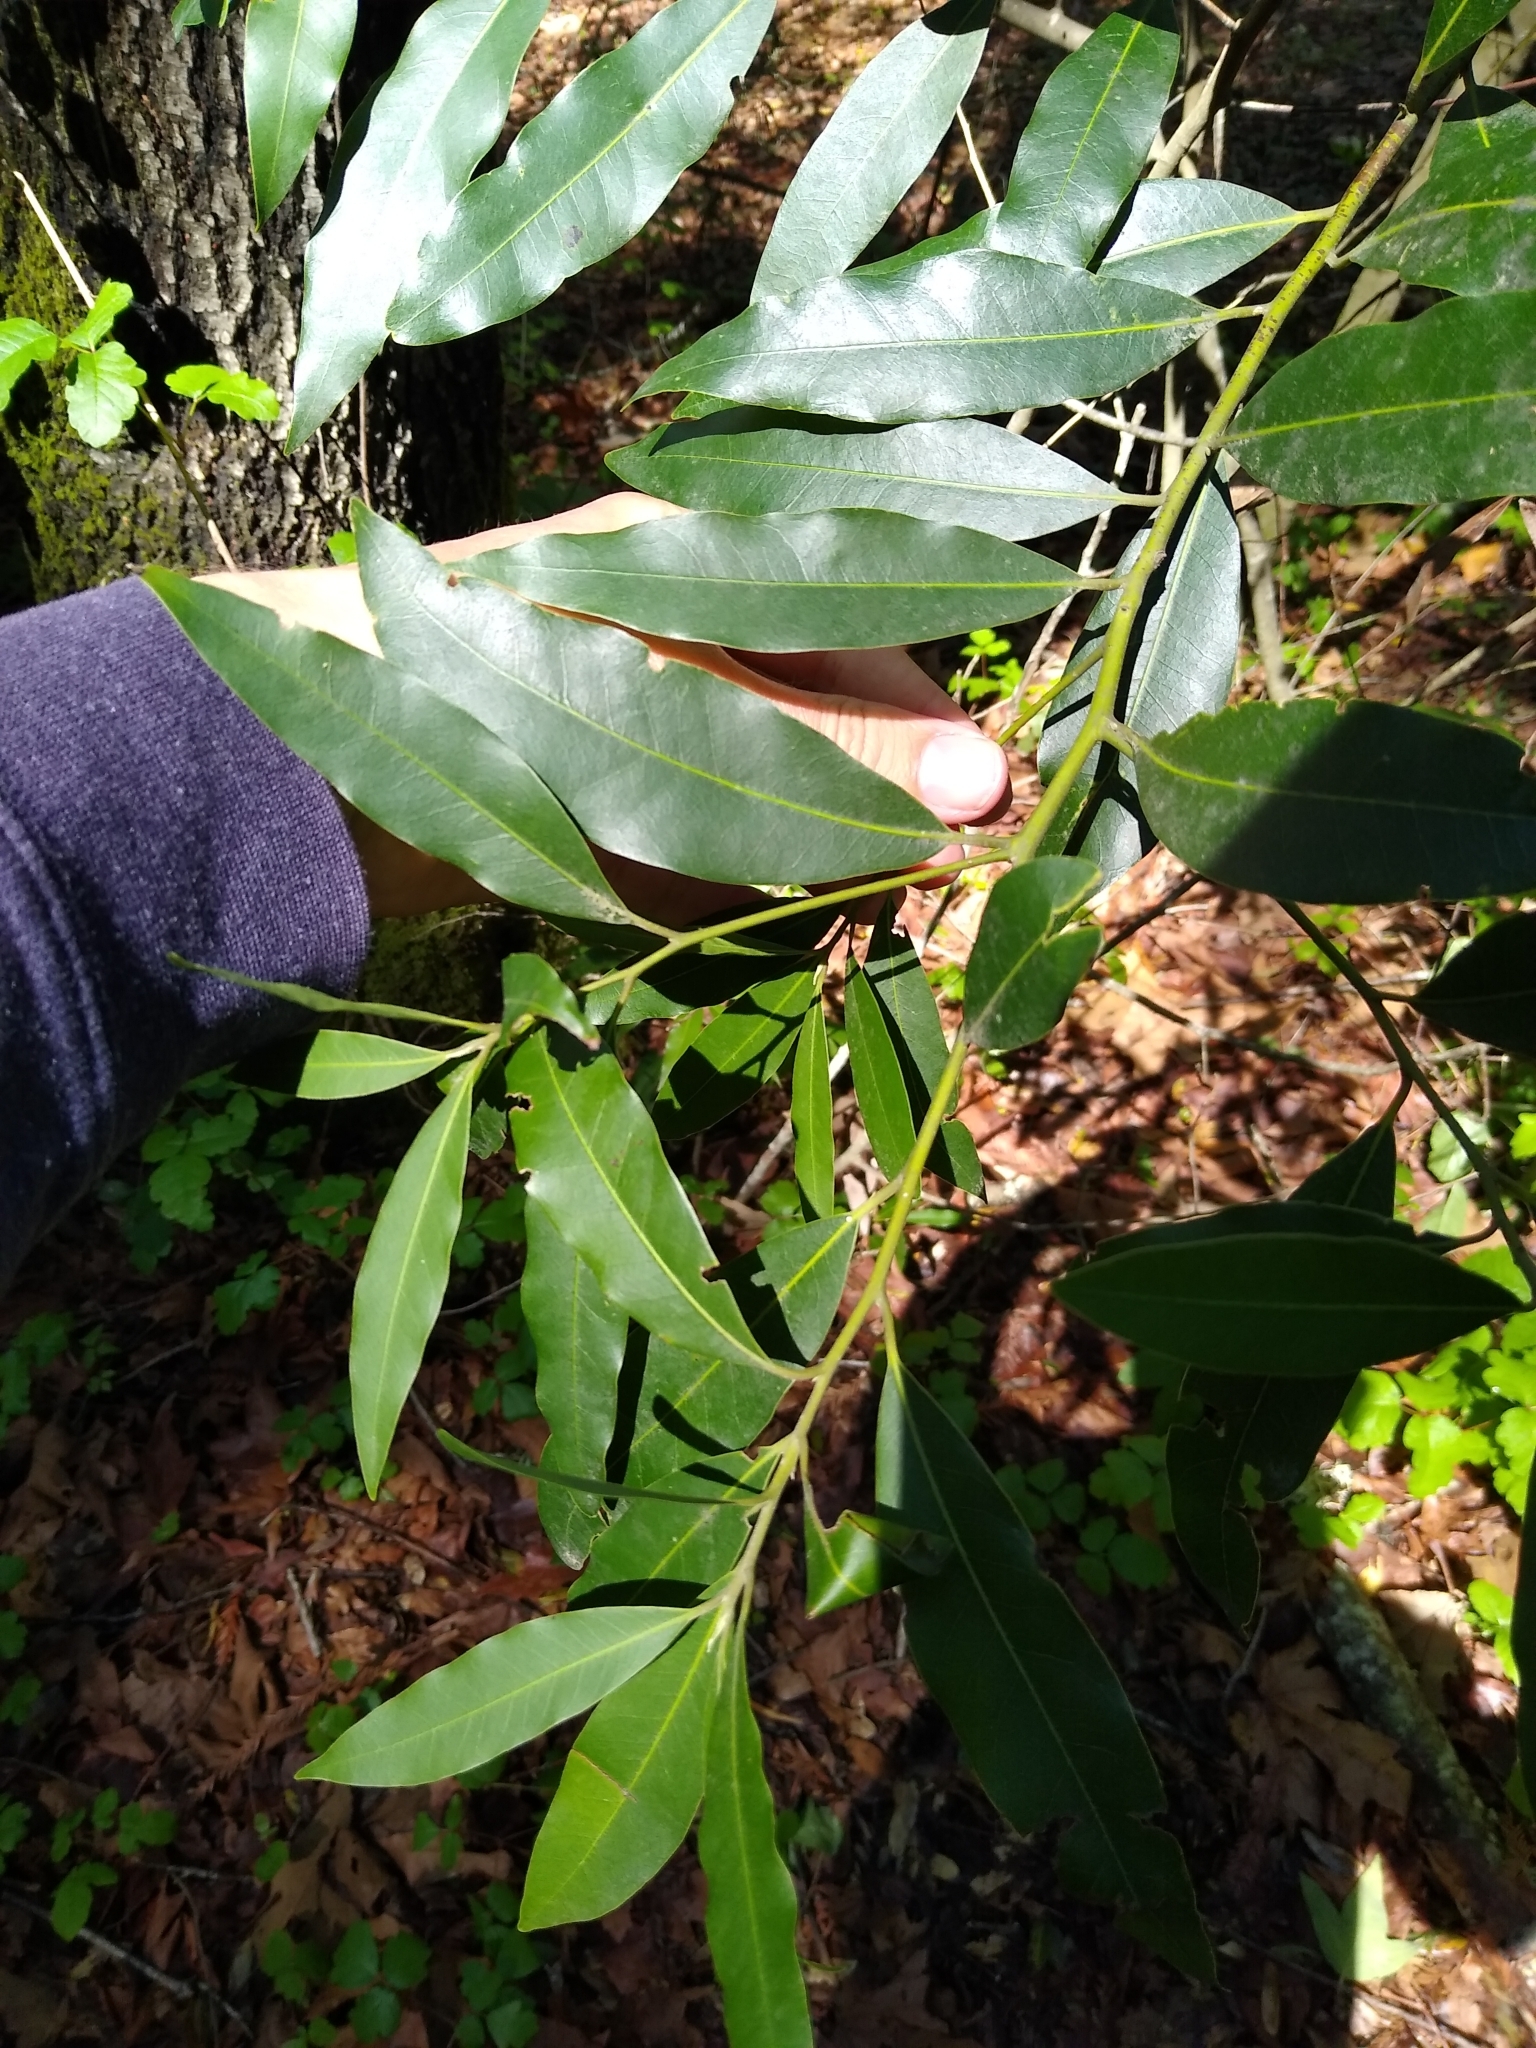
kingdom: Plantae
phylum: Tracheophyta
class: Magnoliopsida
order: Laurales
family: Lauraceae
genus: Umbellularia
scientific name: Umbellularia californica
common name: California bay
